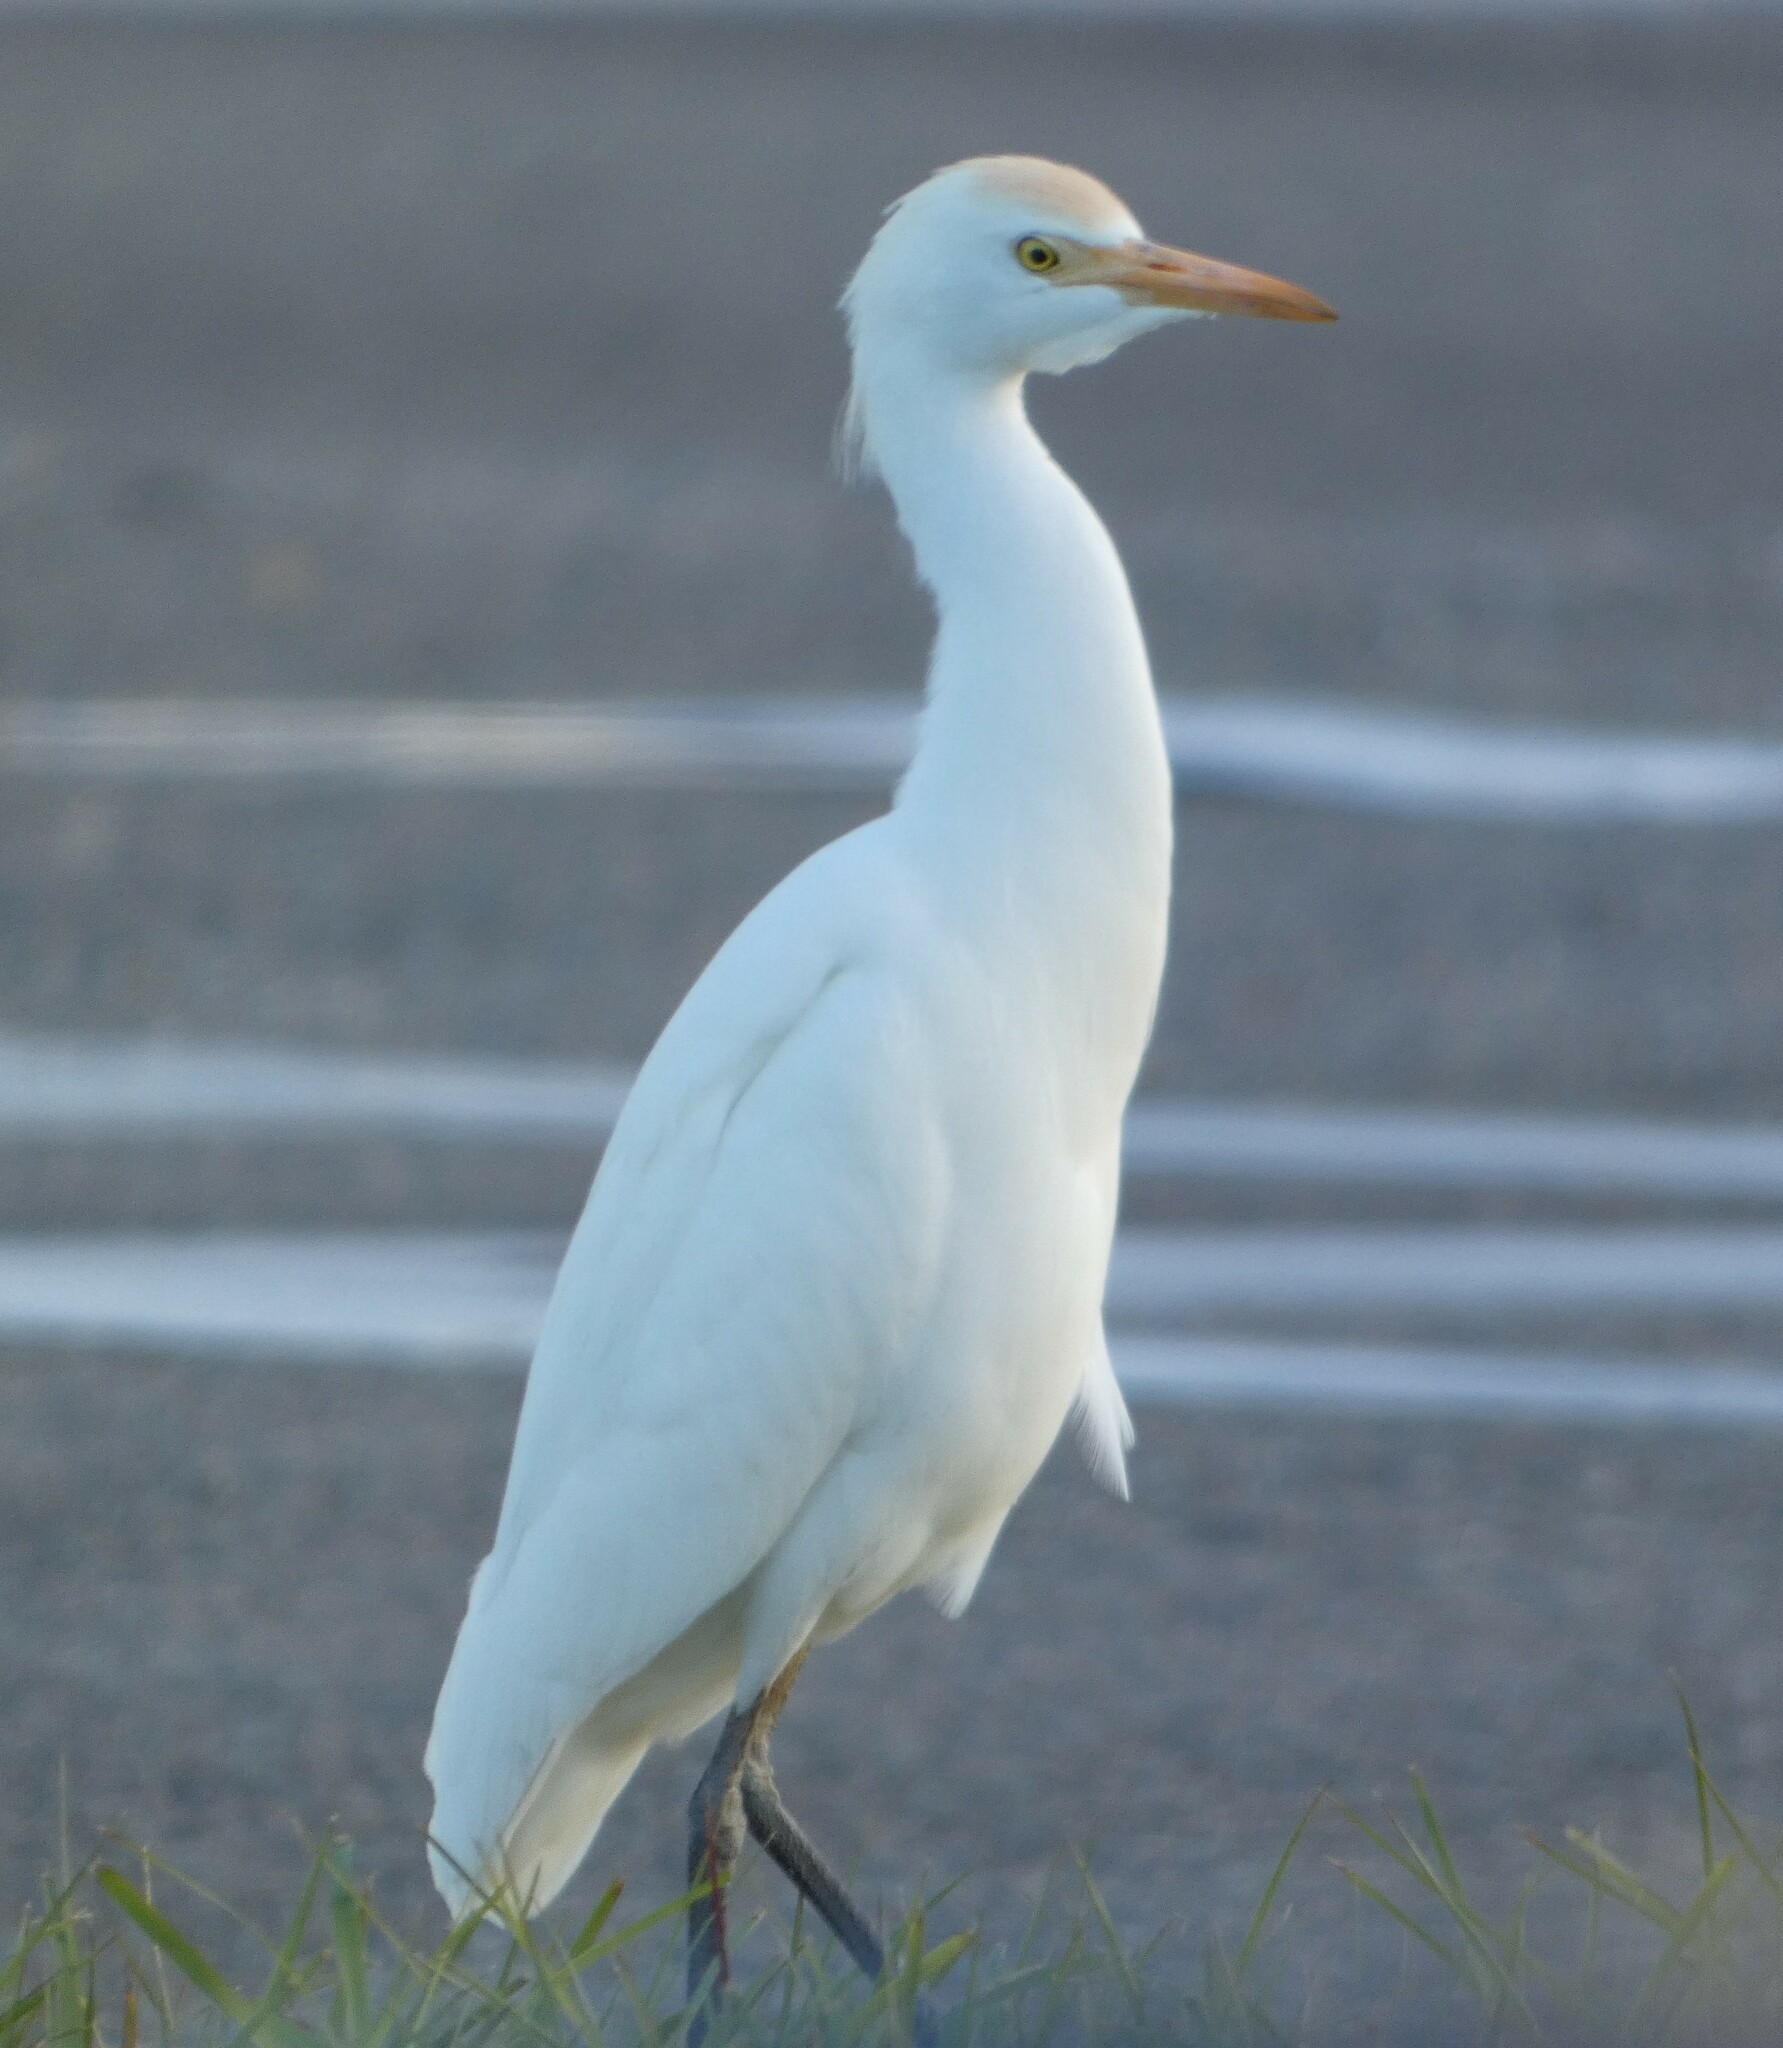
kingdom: Animalia
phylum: Chordata
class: Aves
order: Pelecaniformes
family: Ardeidae
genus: Bubulcus
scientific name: Bubulcus ibis
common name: Cattle egret
